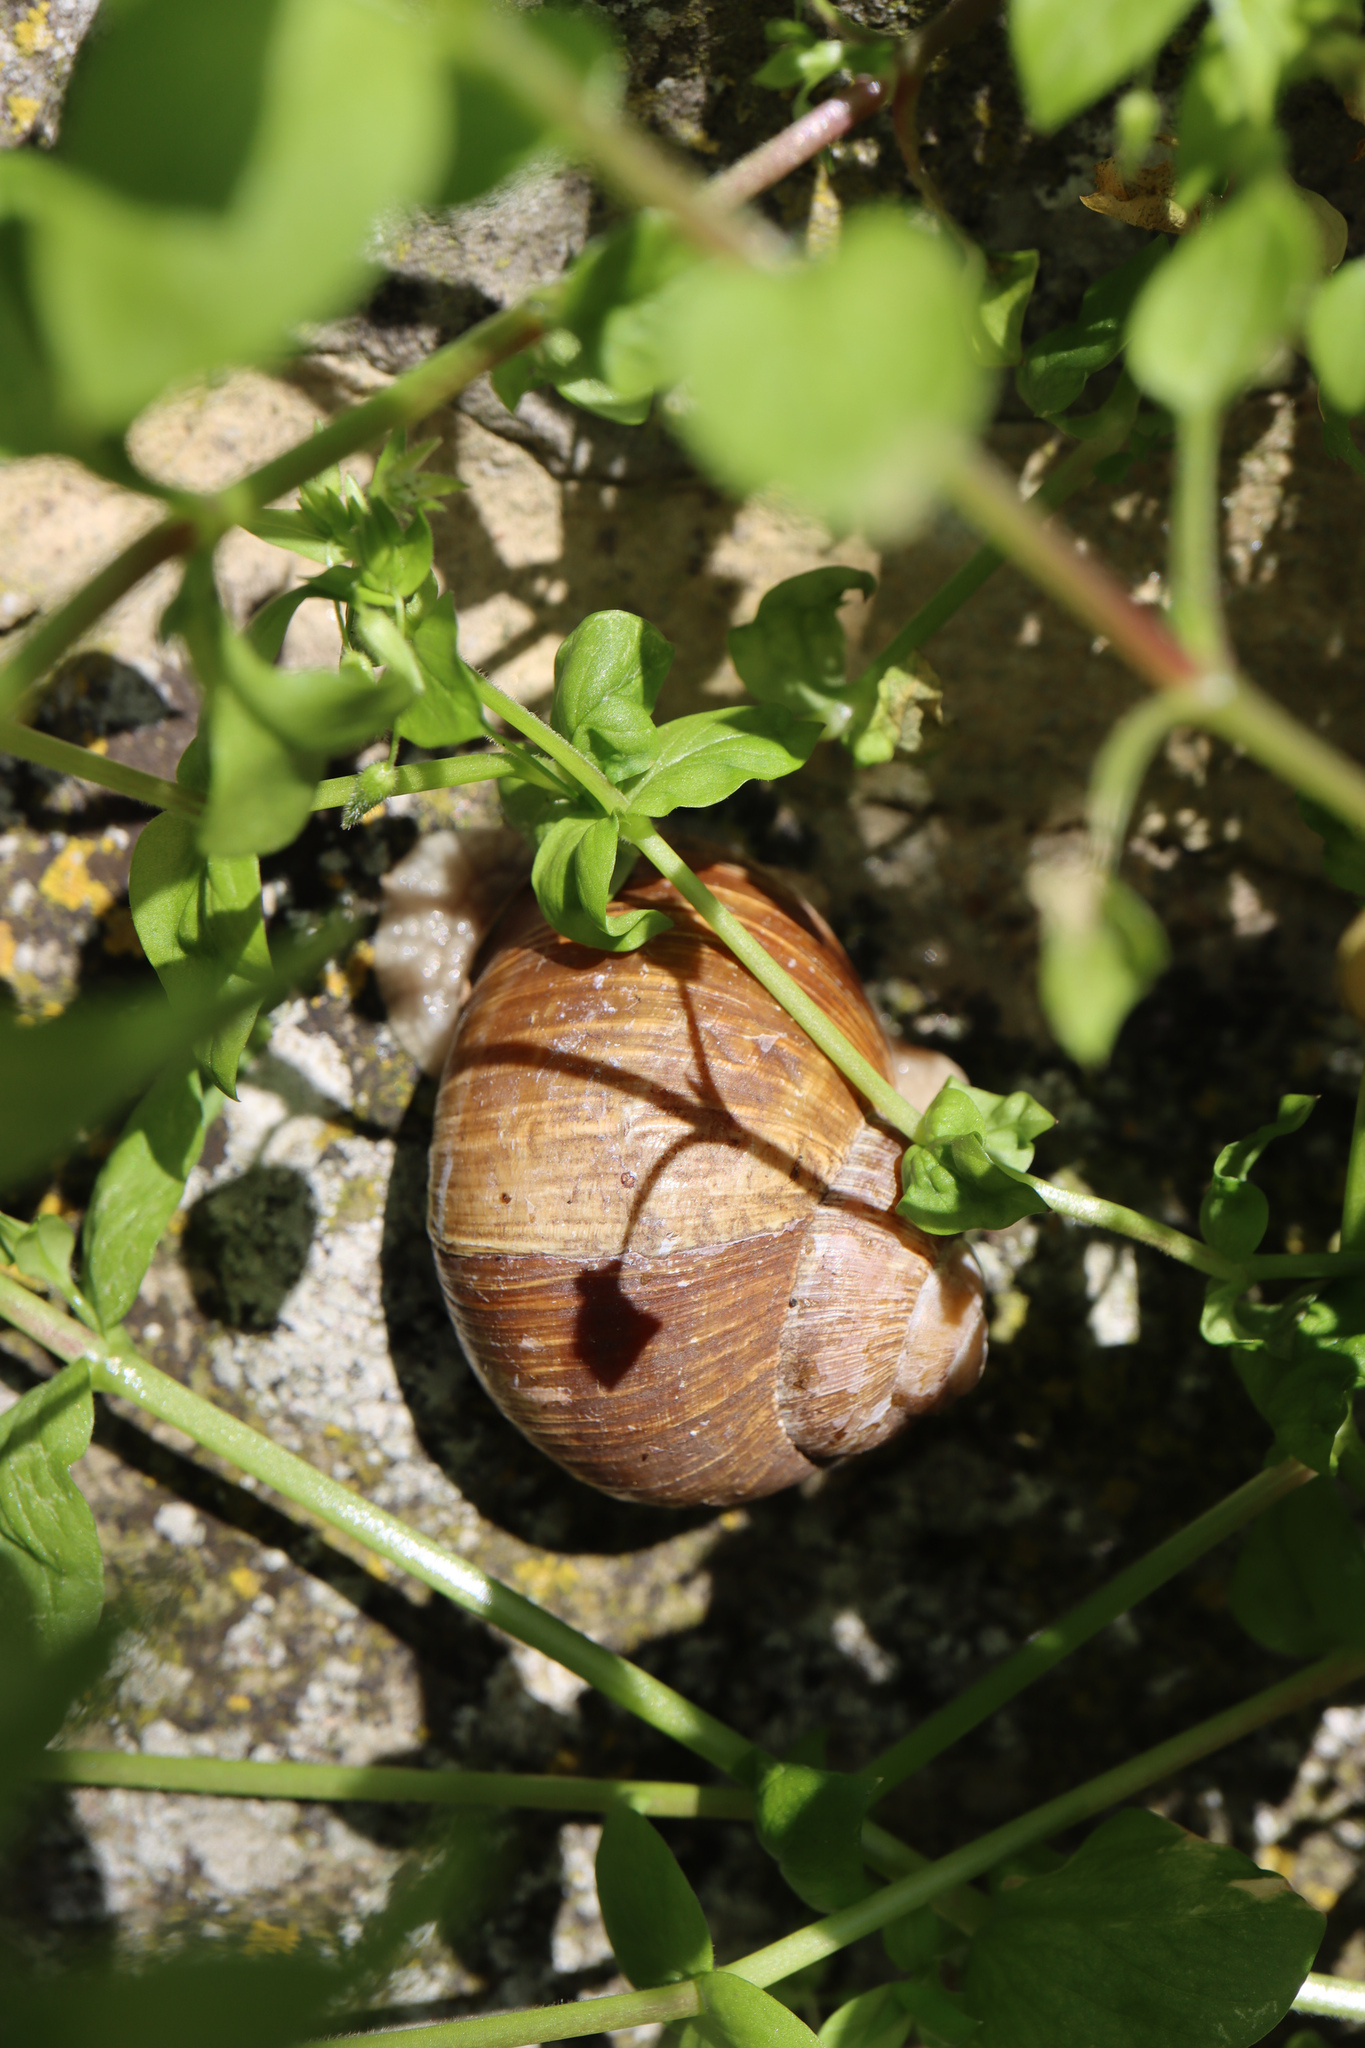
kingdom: Animalia
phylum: Mollusca
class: Gastropoda
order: Stylommatophora
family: Helicidae
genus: Helix
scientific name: Helix pomatia
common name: Roman snail
